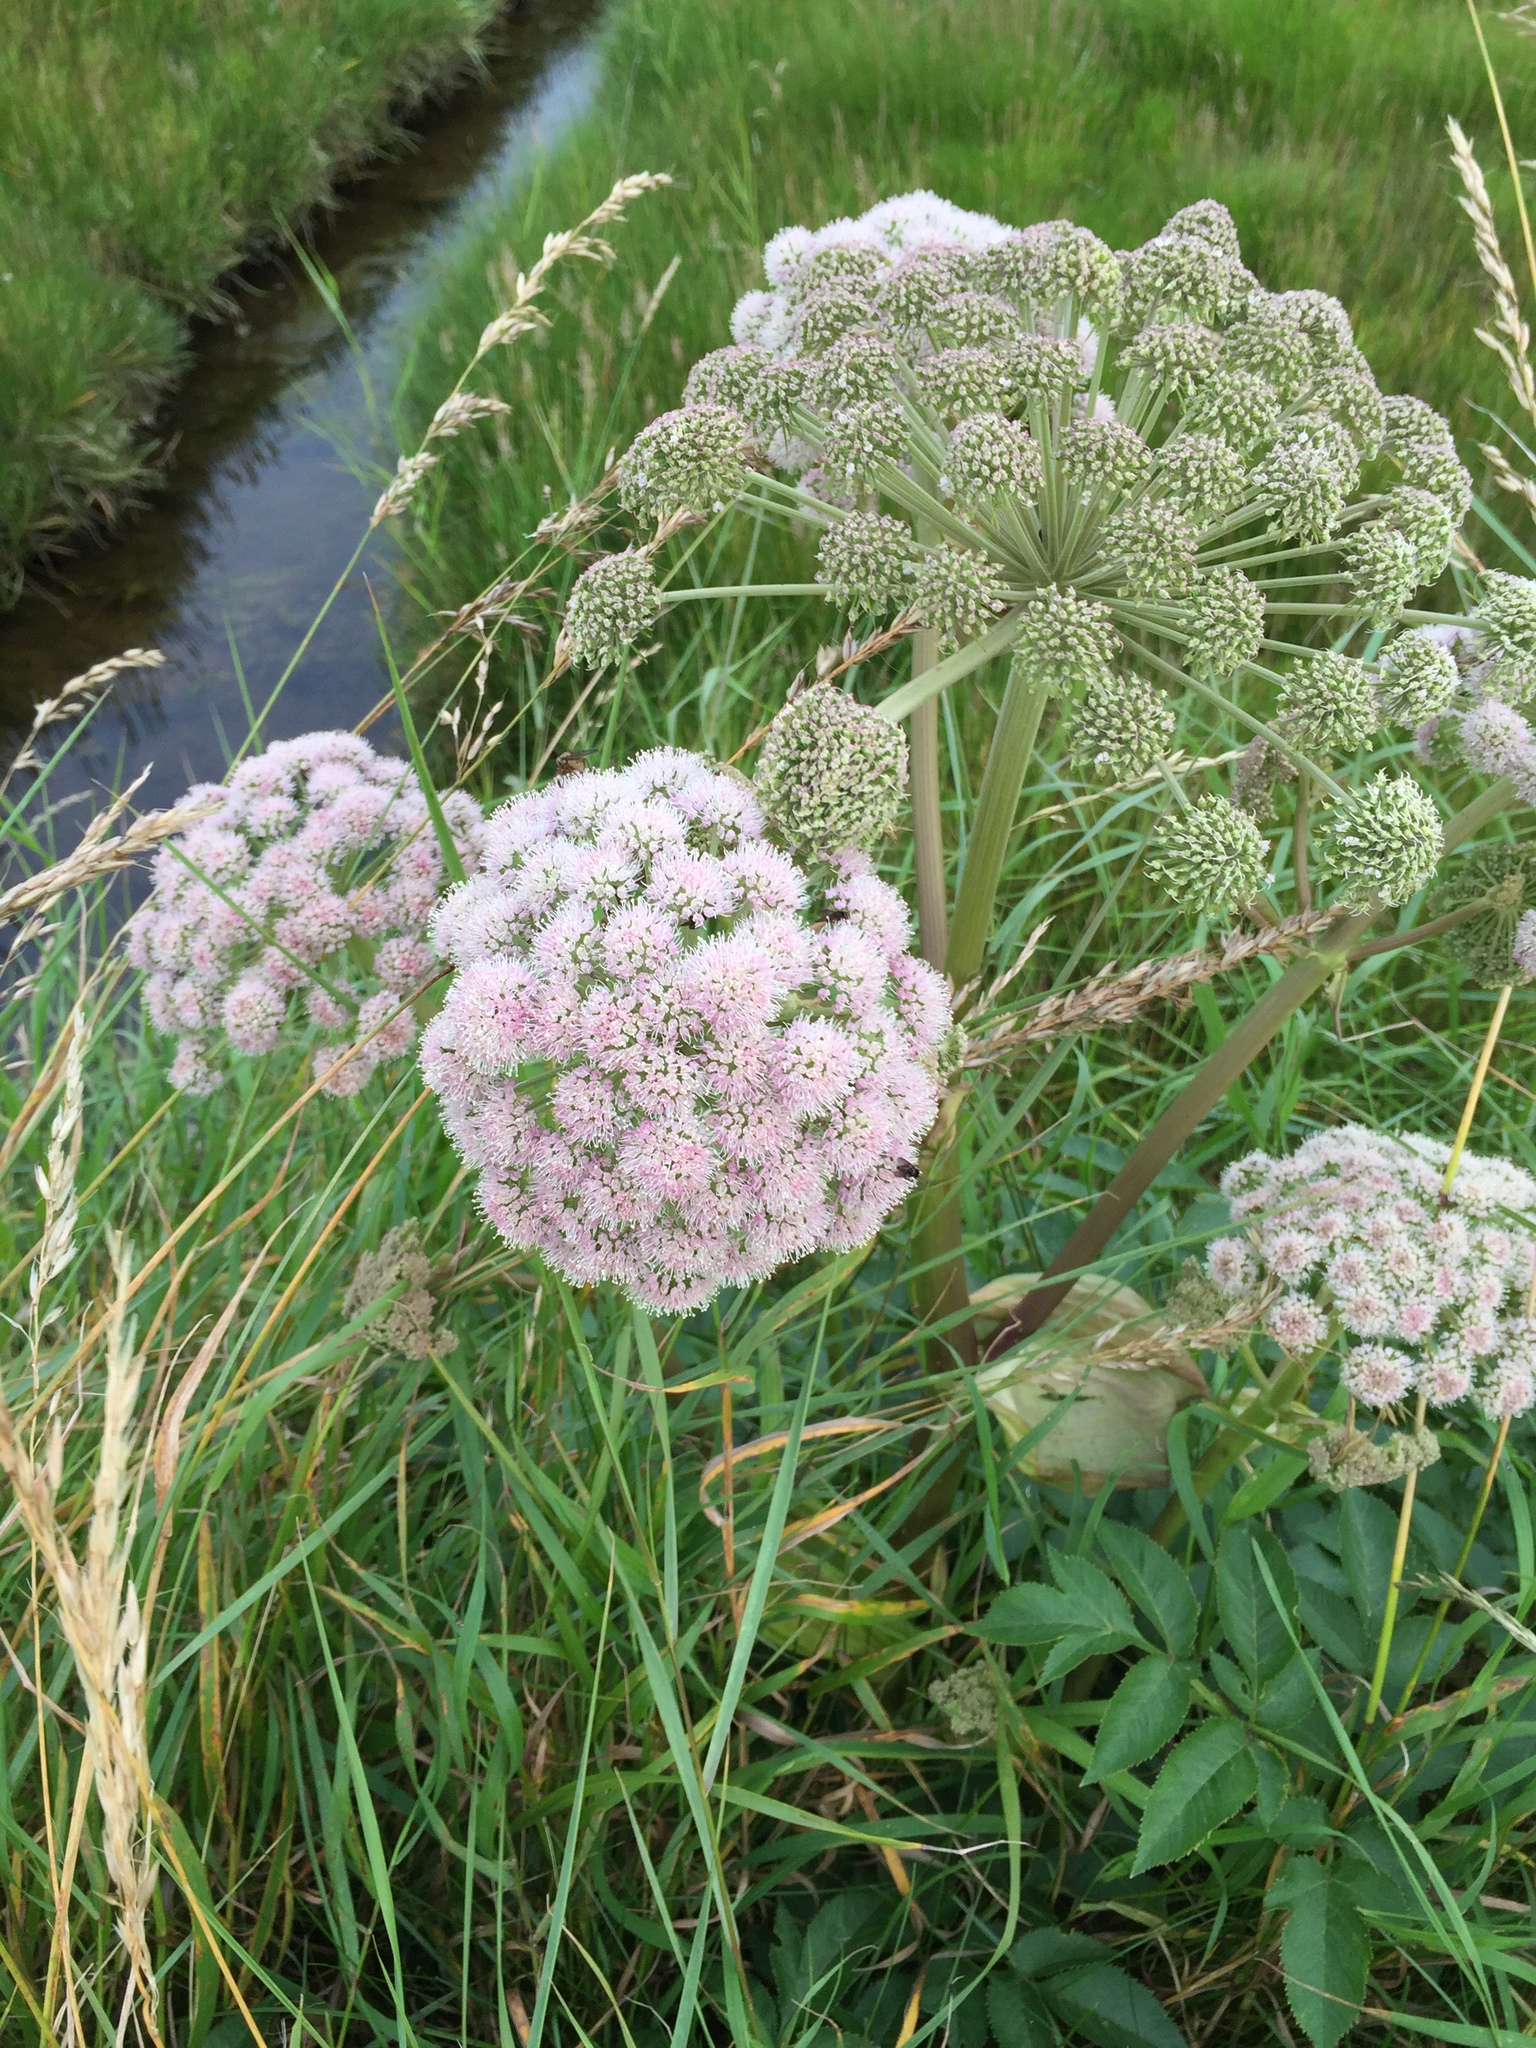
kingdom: Plantae
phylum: Tracheophyta
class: Magnoliopsida
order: Apiales
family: Apiaceae
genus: Angelica
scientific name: Angelica sylvestris
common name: Wild angelica
